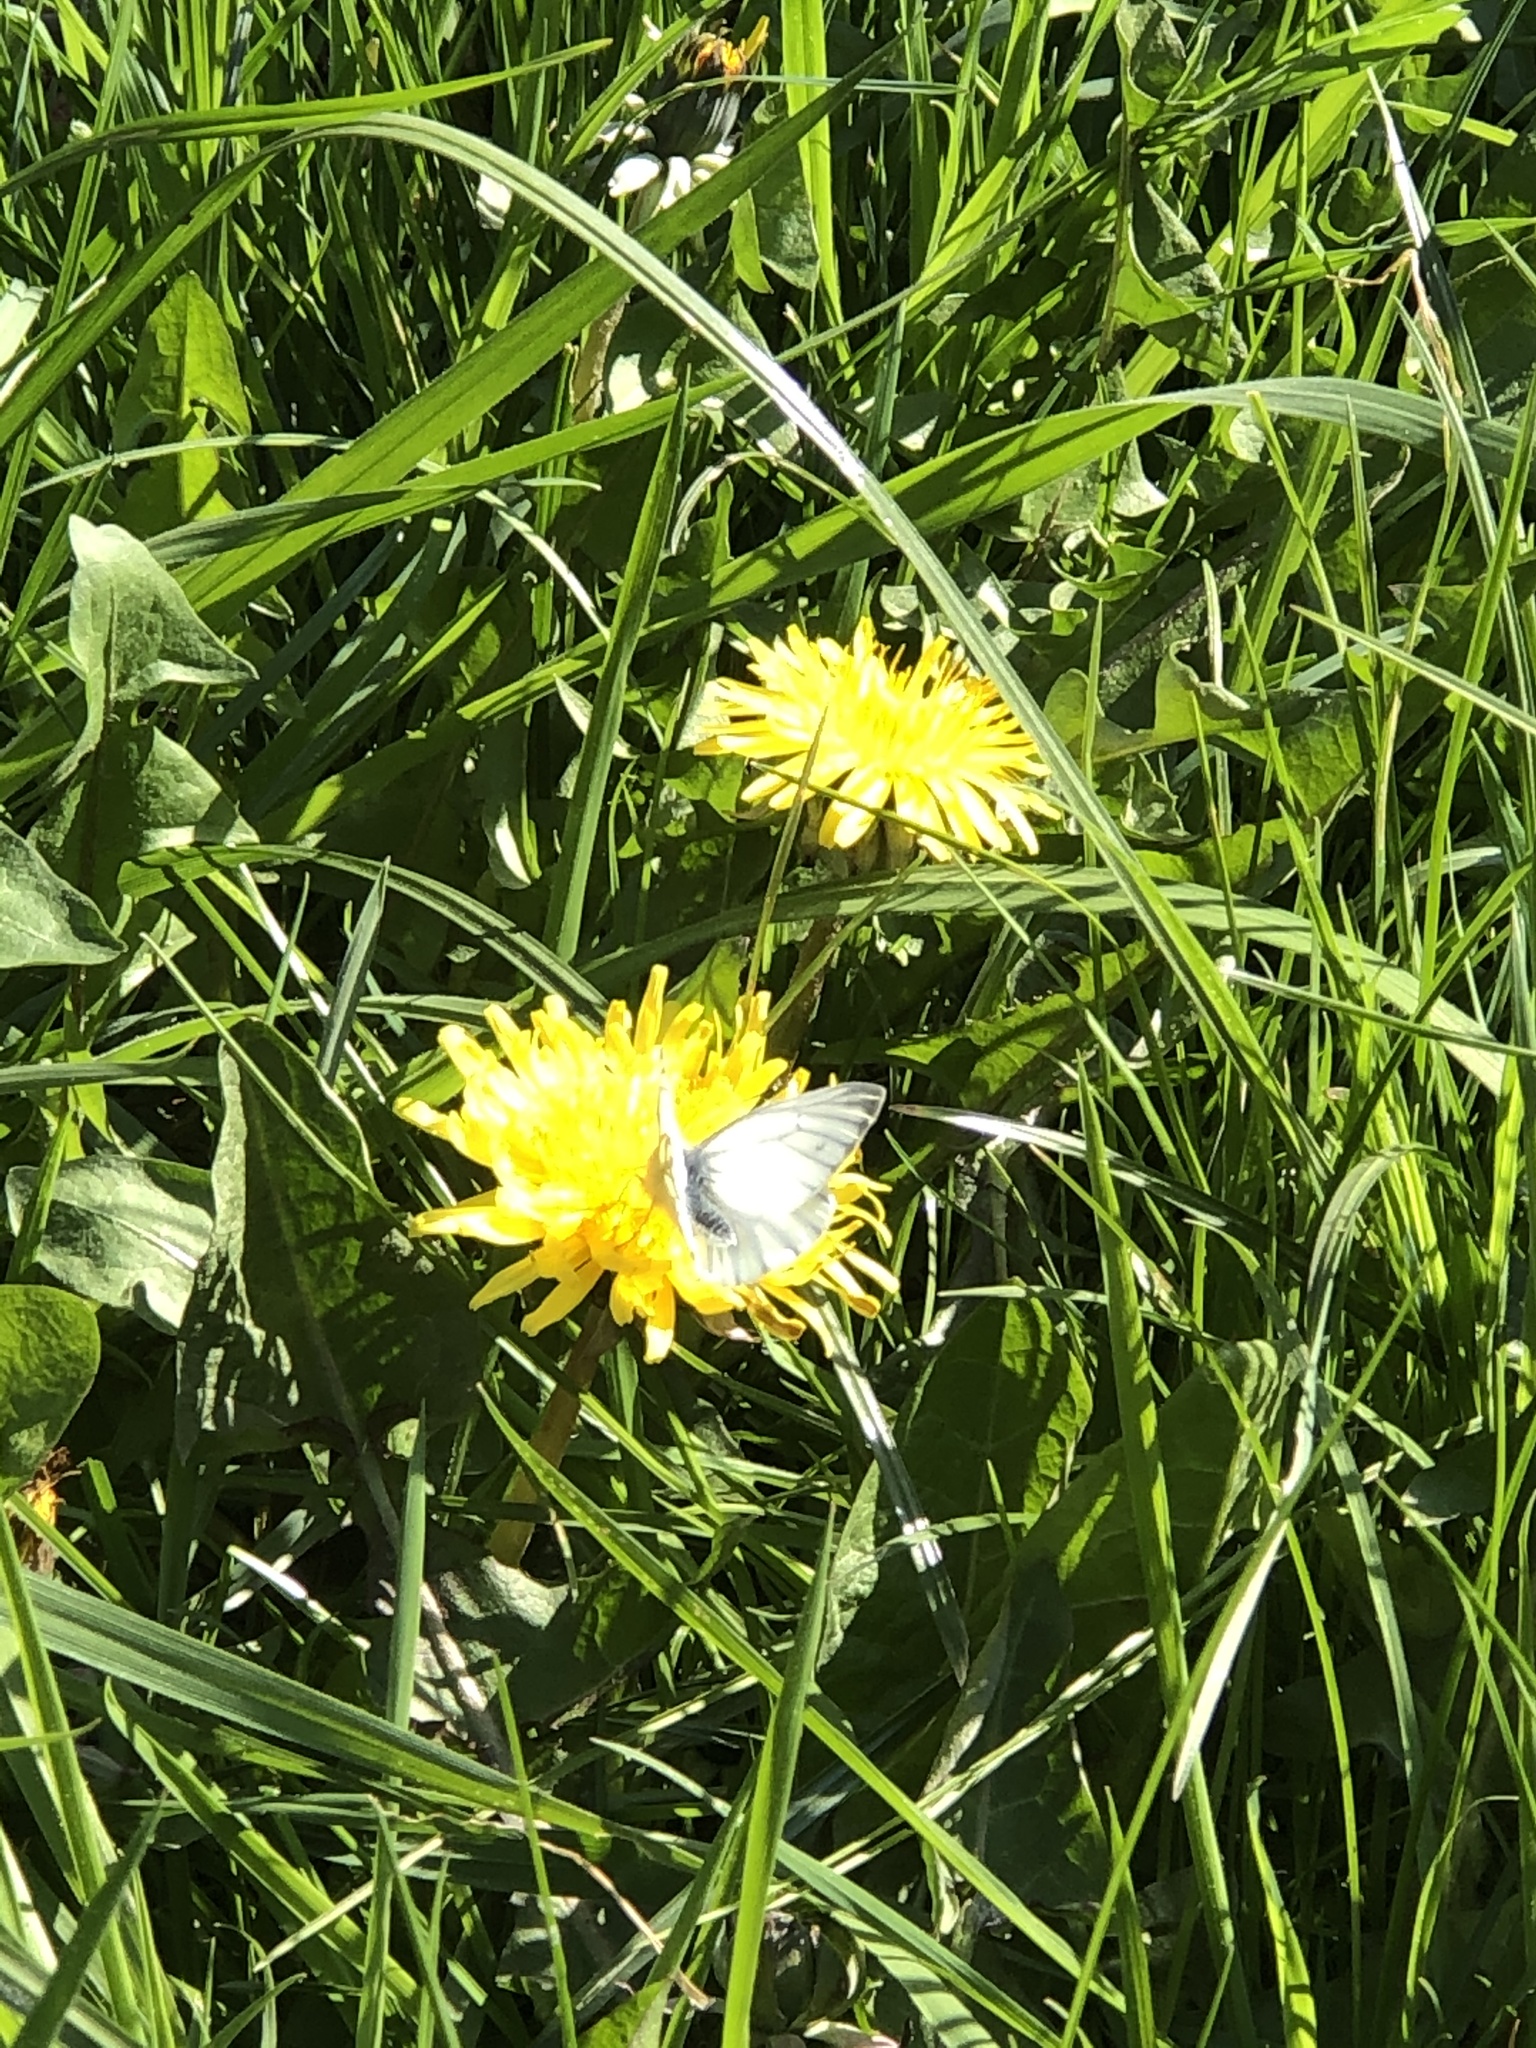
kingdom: Animalia
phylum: Arthropoda
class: Insecta
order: Lepidoptera
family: Pieridae
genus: Pieris
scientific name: Pieris napi
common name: Green-veined white
